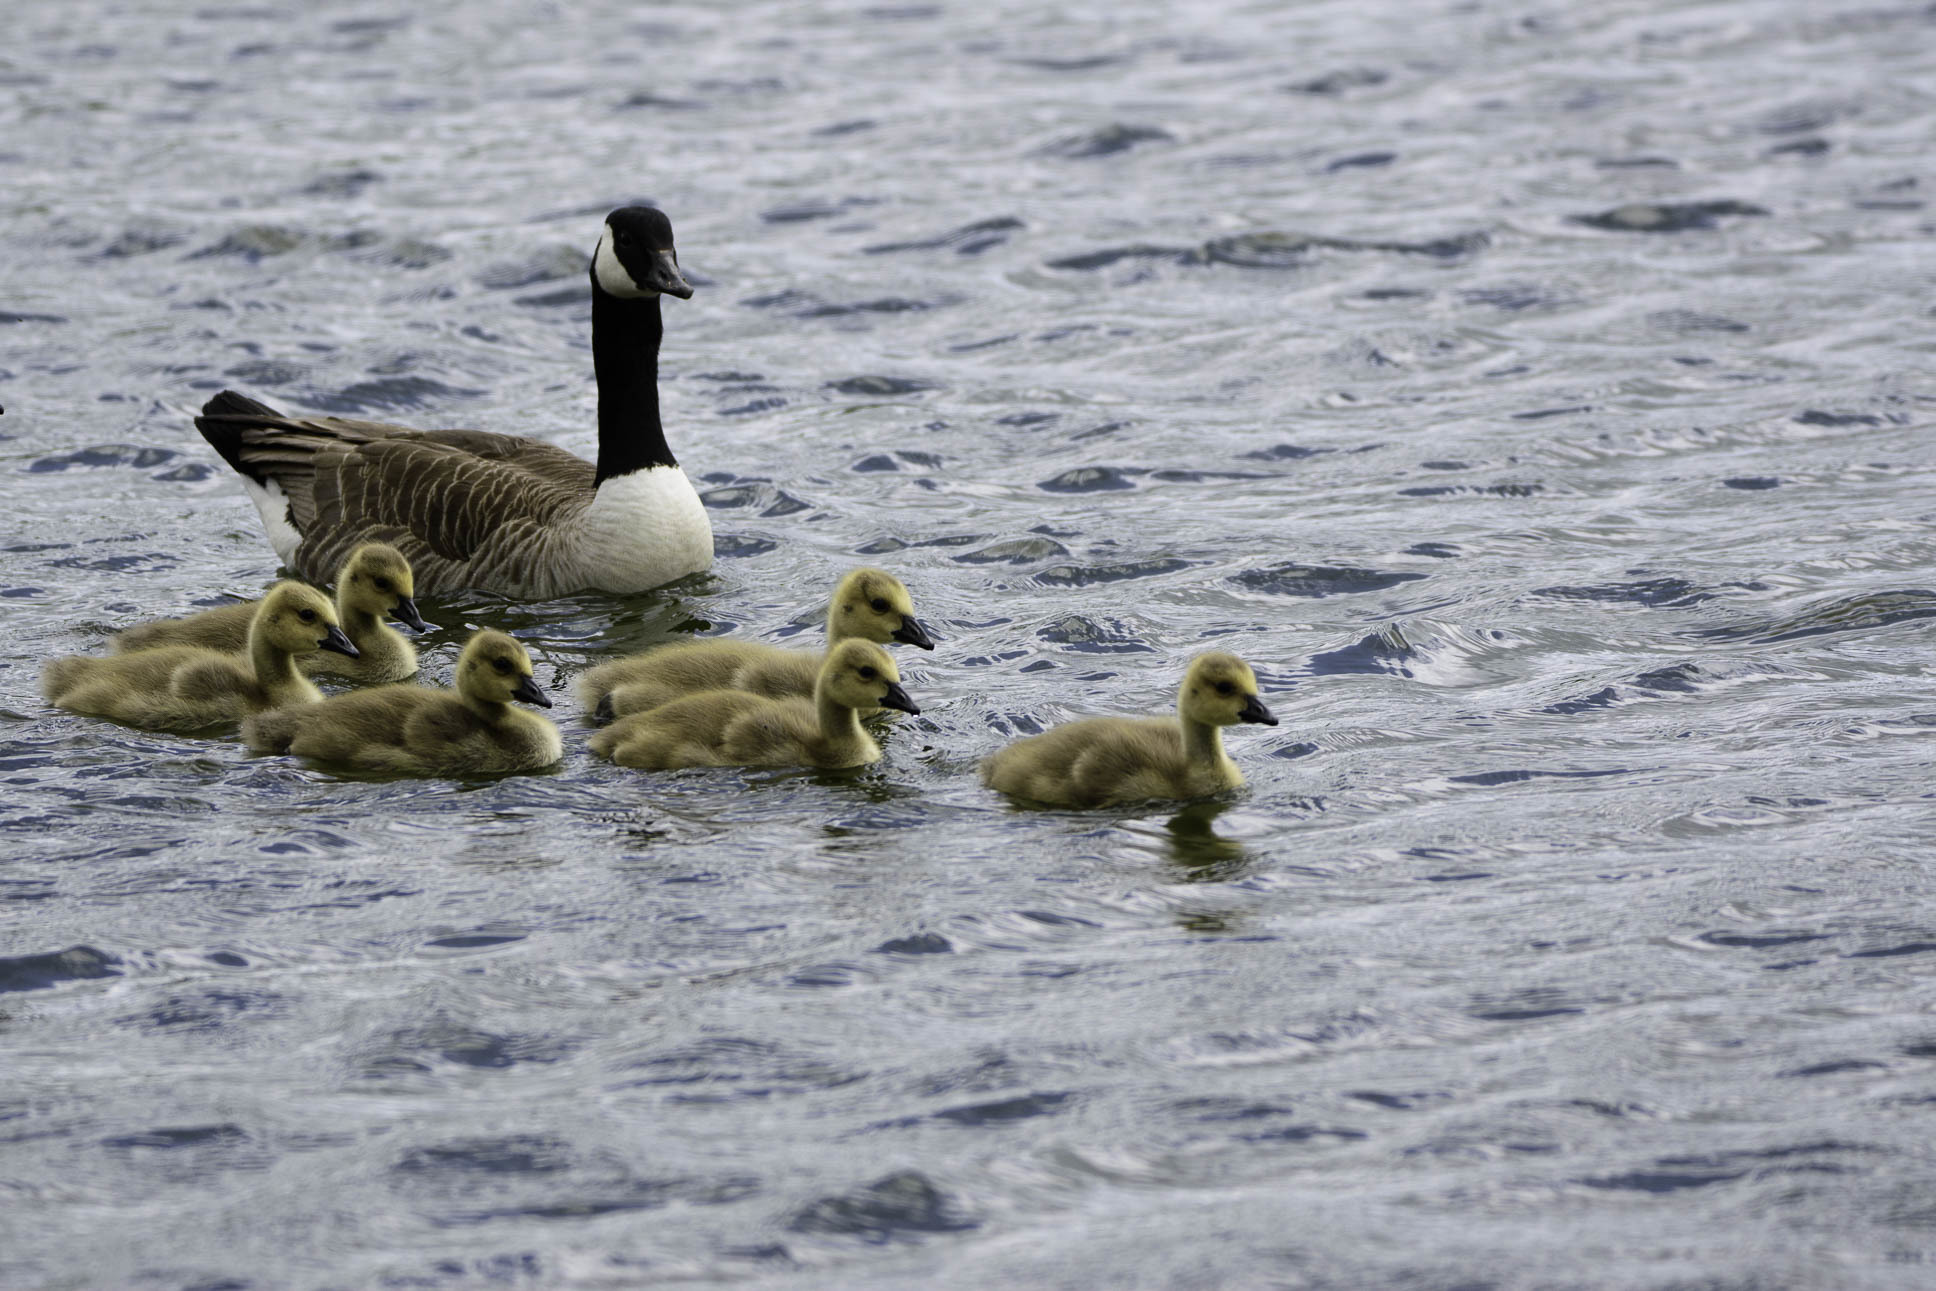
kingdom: Animalia
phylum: Chordata
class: Aves
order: Anseriformes
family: Anatidae
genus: Branta
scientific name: Branta canadensis
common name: Canada goose
